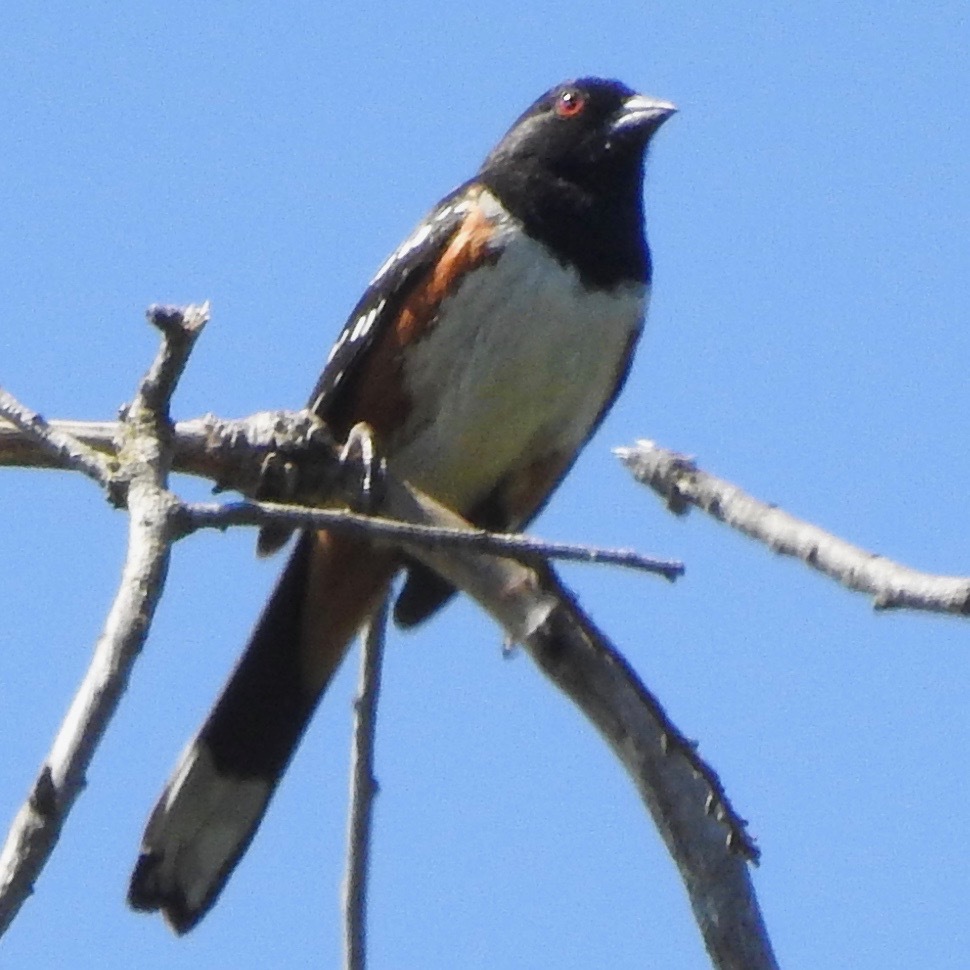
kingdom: Animalia
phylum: Chordata
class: Aves
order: Passeriformes
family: Passerellidae
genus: Pipilo
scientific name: Pipilo maculatus
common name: Spotted towhee
